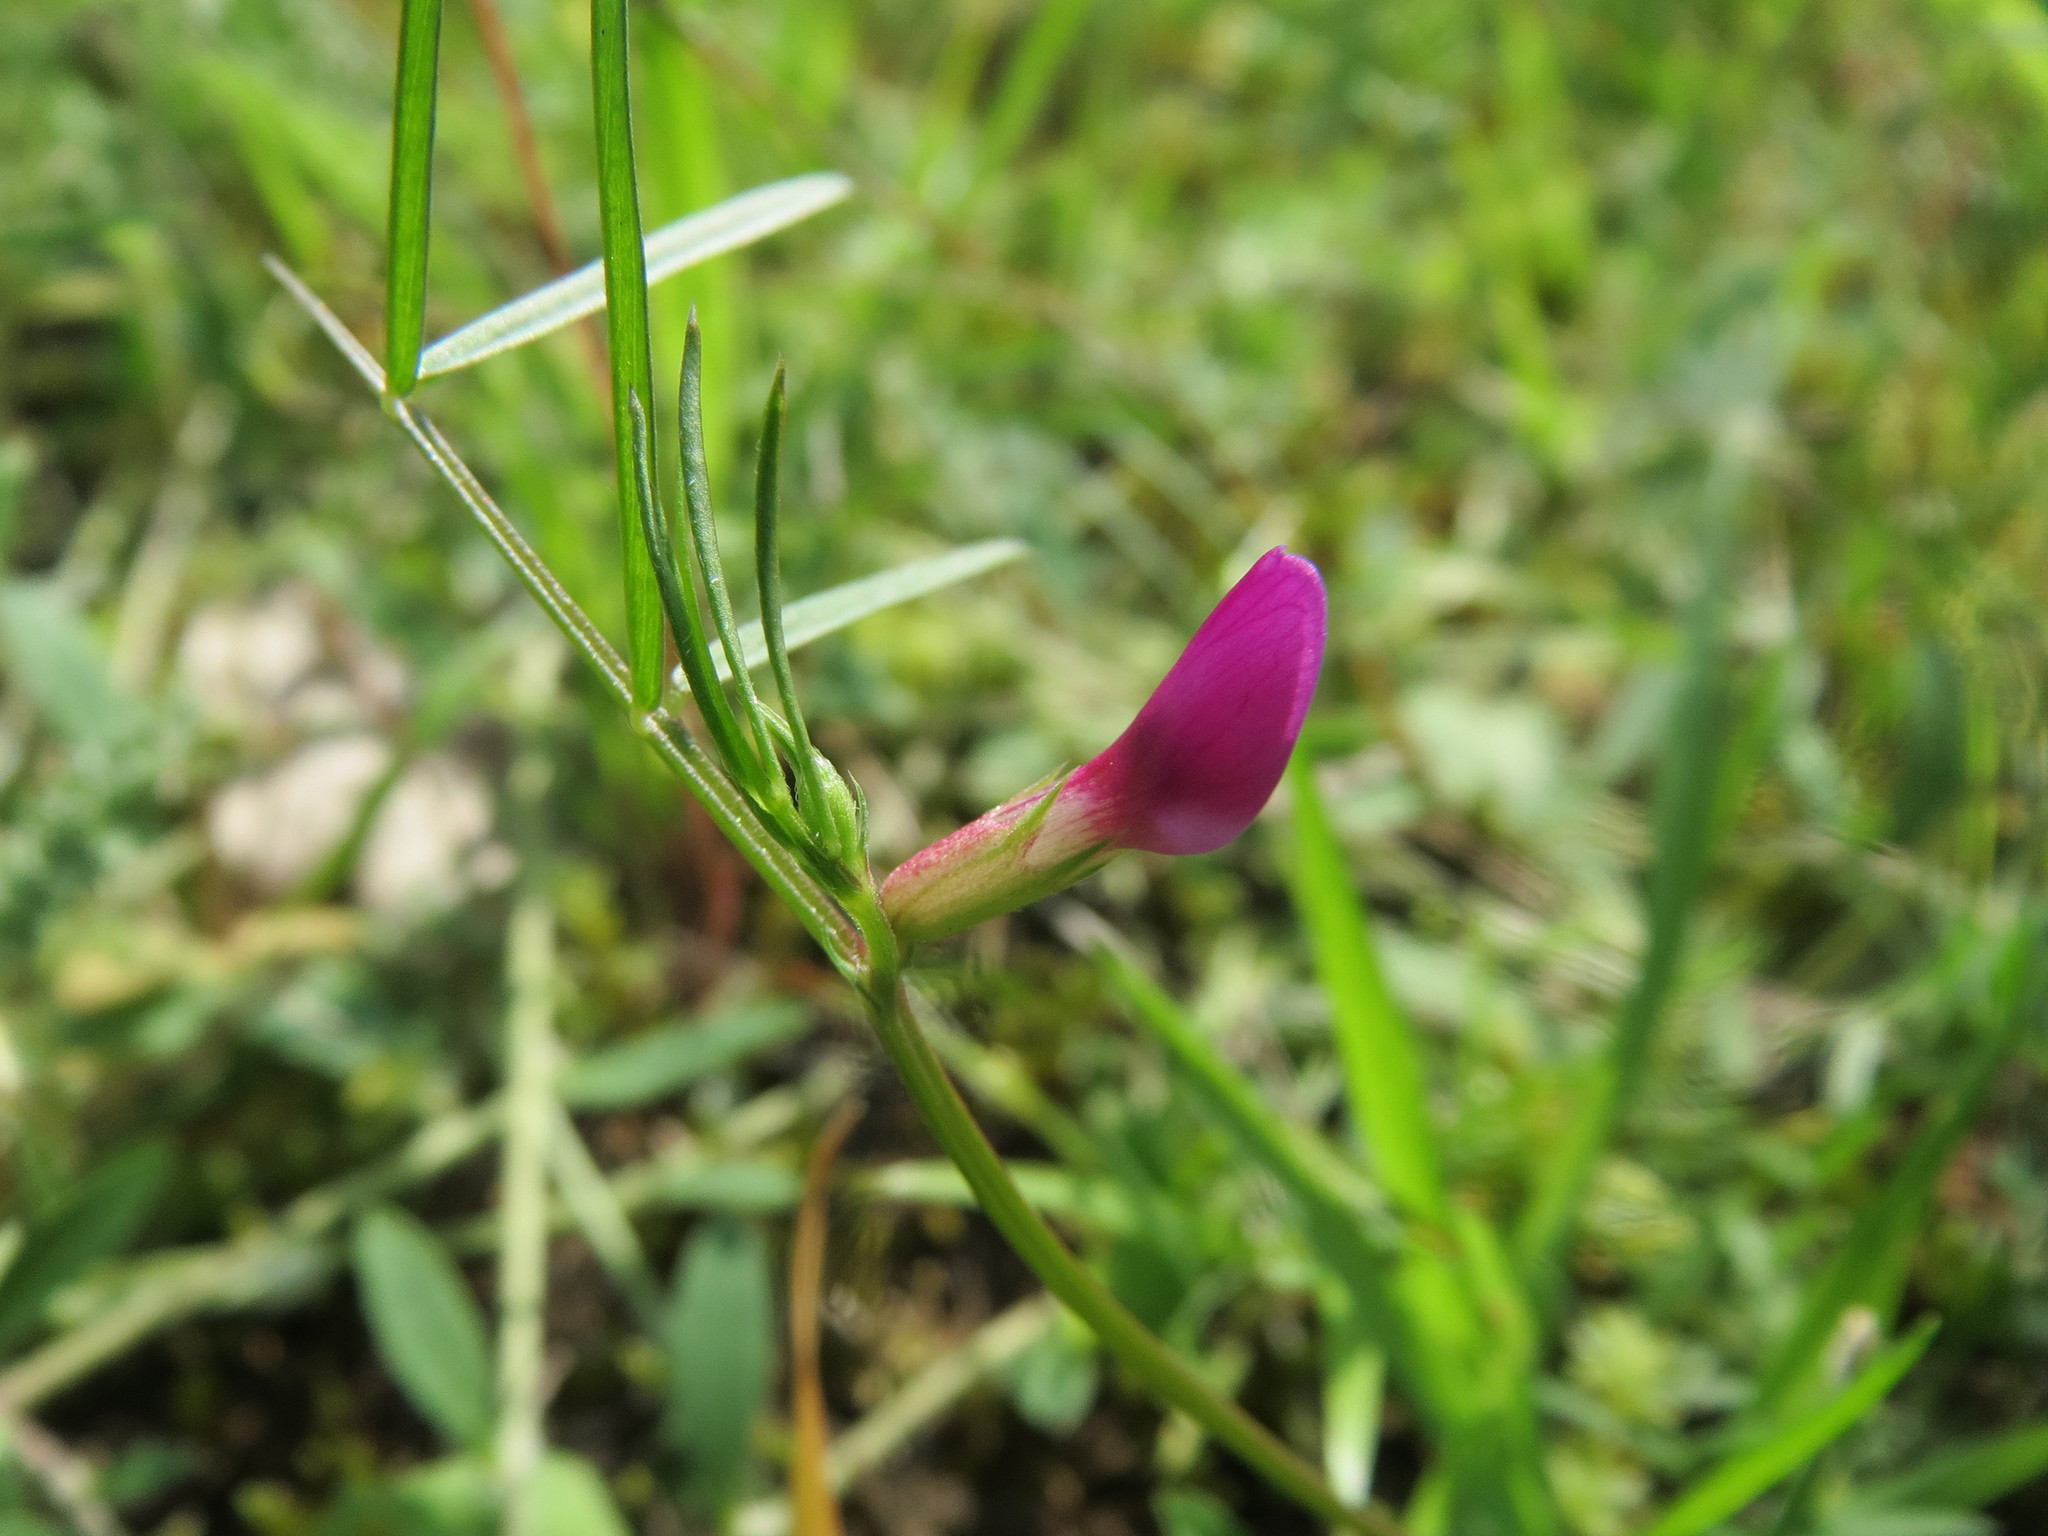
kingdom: Plantae
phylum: Tracheophyta
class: Magnoliopsida
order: Fabales
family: Fabaceae
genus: Vicia
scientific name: Vicia sativa
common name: Garden vetch
